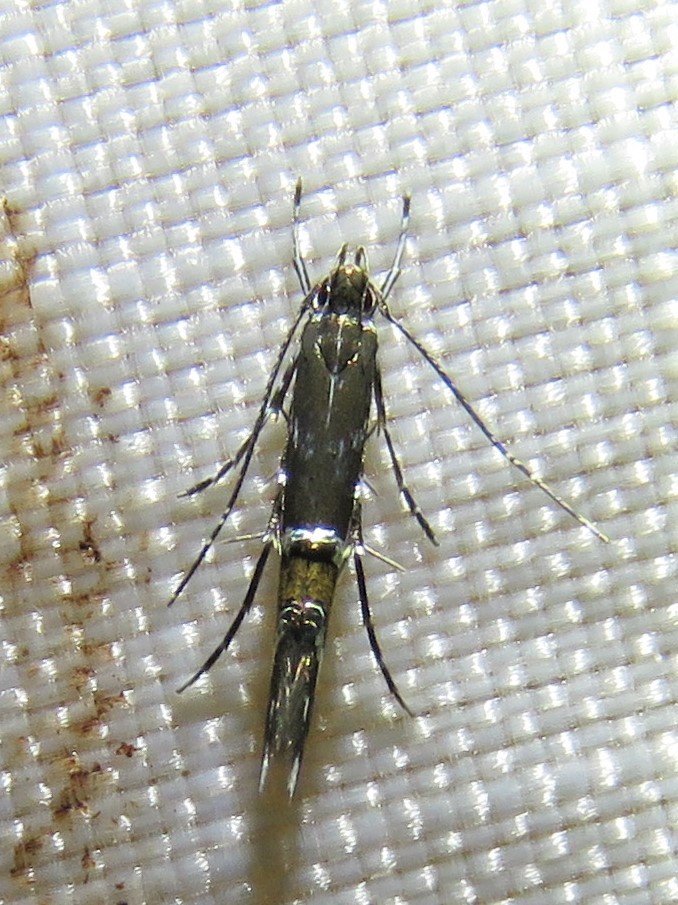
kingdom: Animalia
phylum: Arthropoda
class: Insecta
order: Lepidoptera
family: Cosmopterigidae
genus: Cosmopterix
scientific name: Cosmopterix pulchrimella
